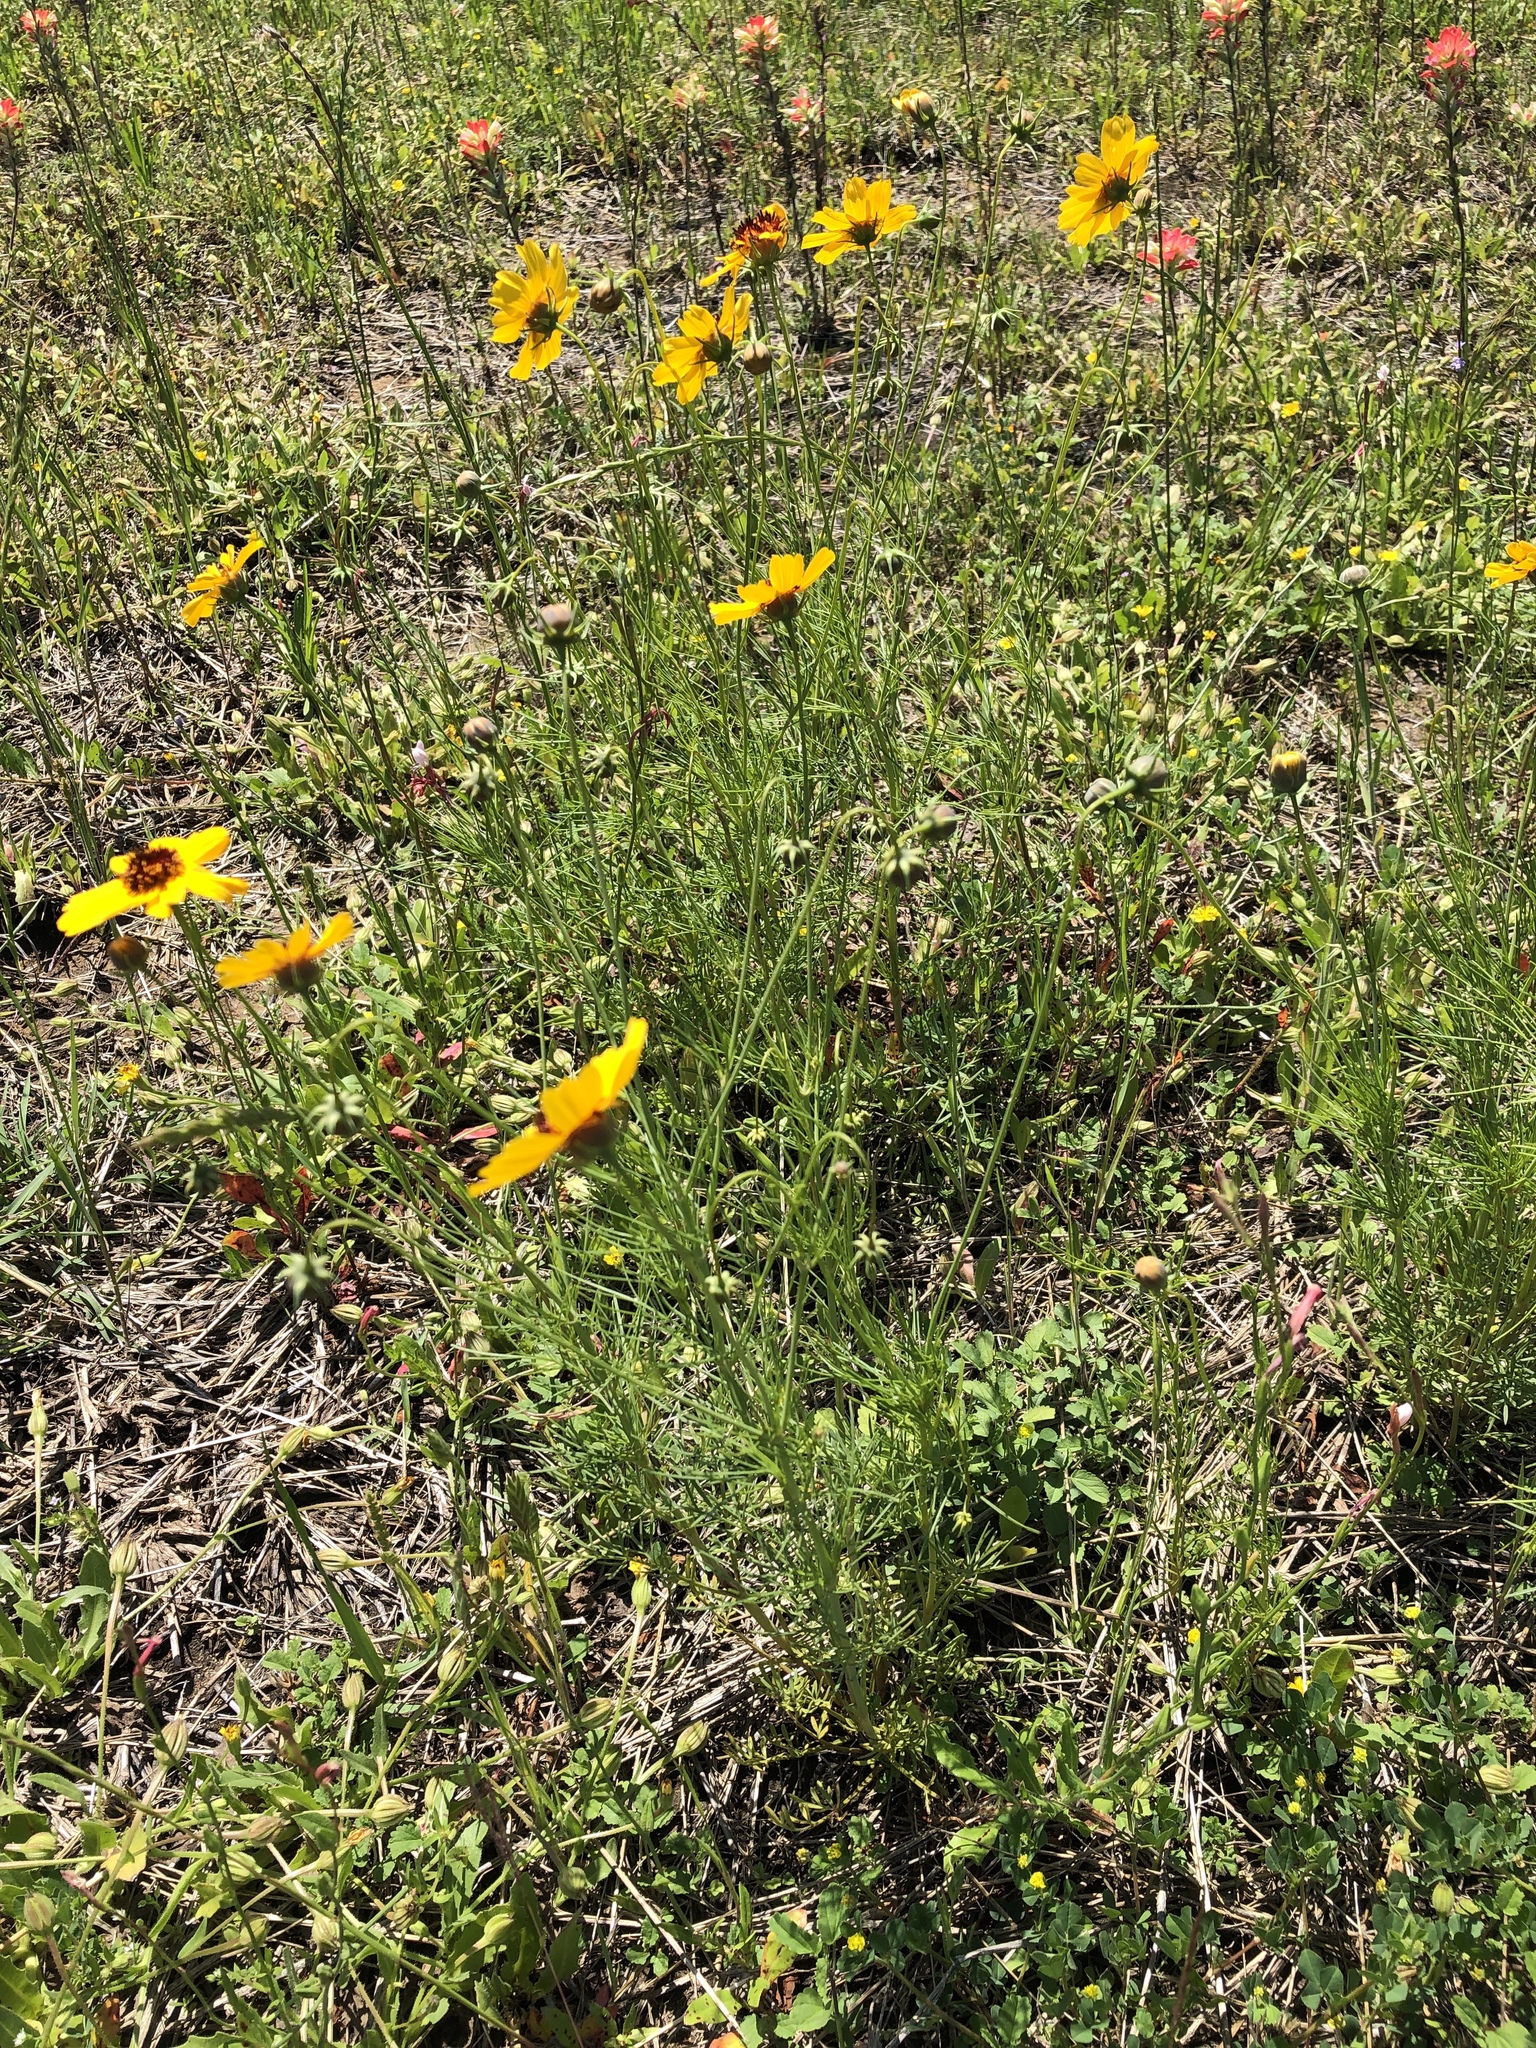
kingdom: Plantae
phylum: Tracheophyta
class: Magnoliopsida
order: Asterales
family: Asteraceae
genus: Thelesperma
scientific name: Thelesperma filifolium
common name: Stiff greenthread
